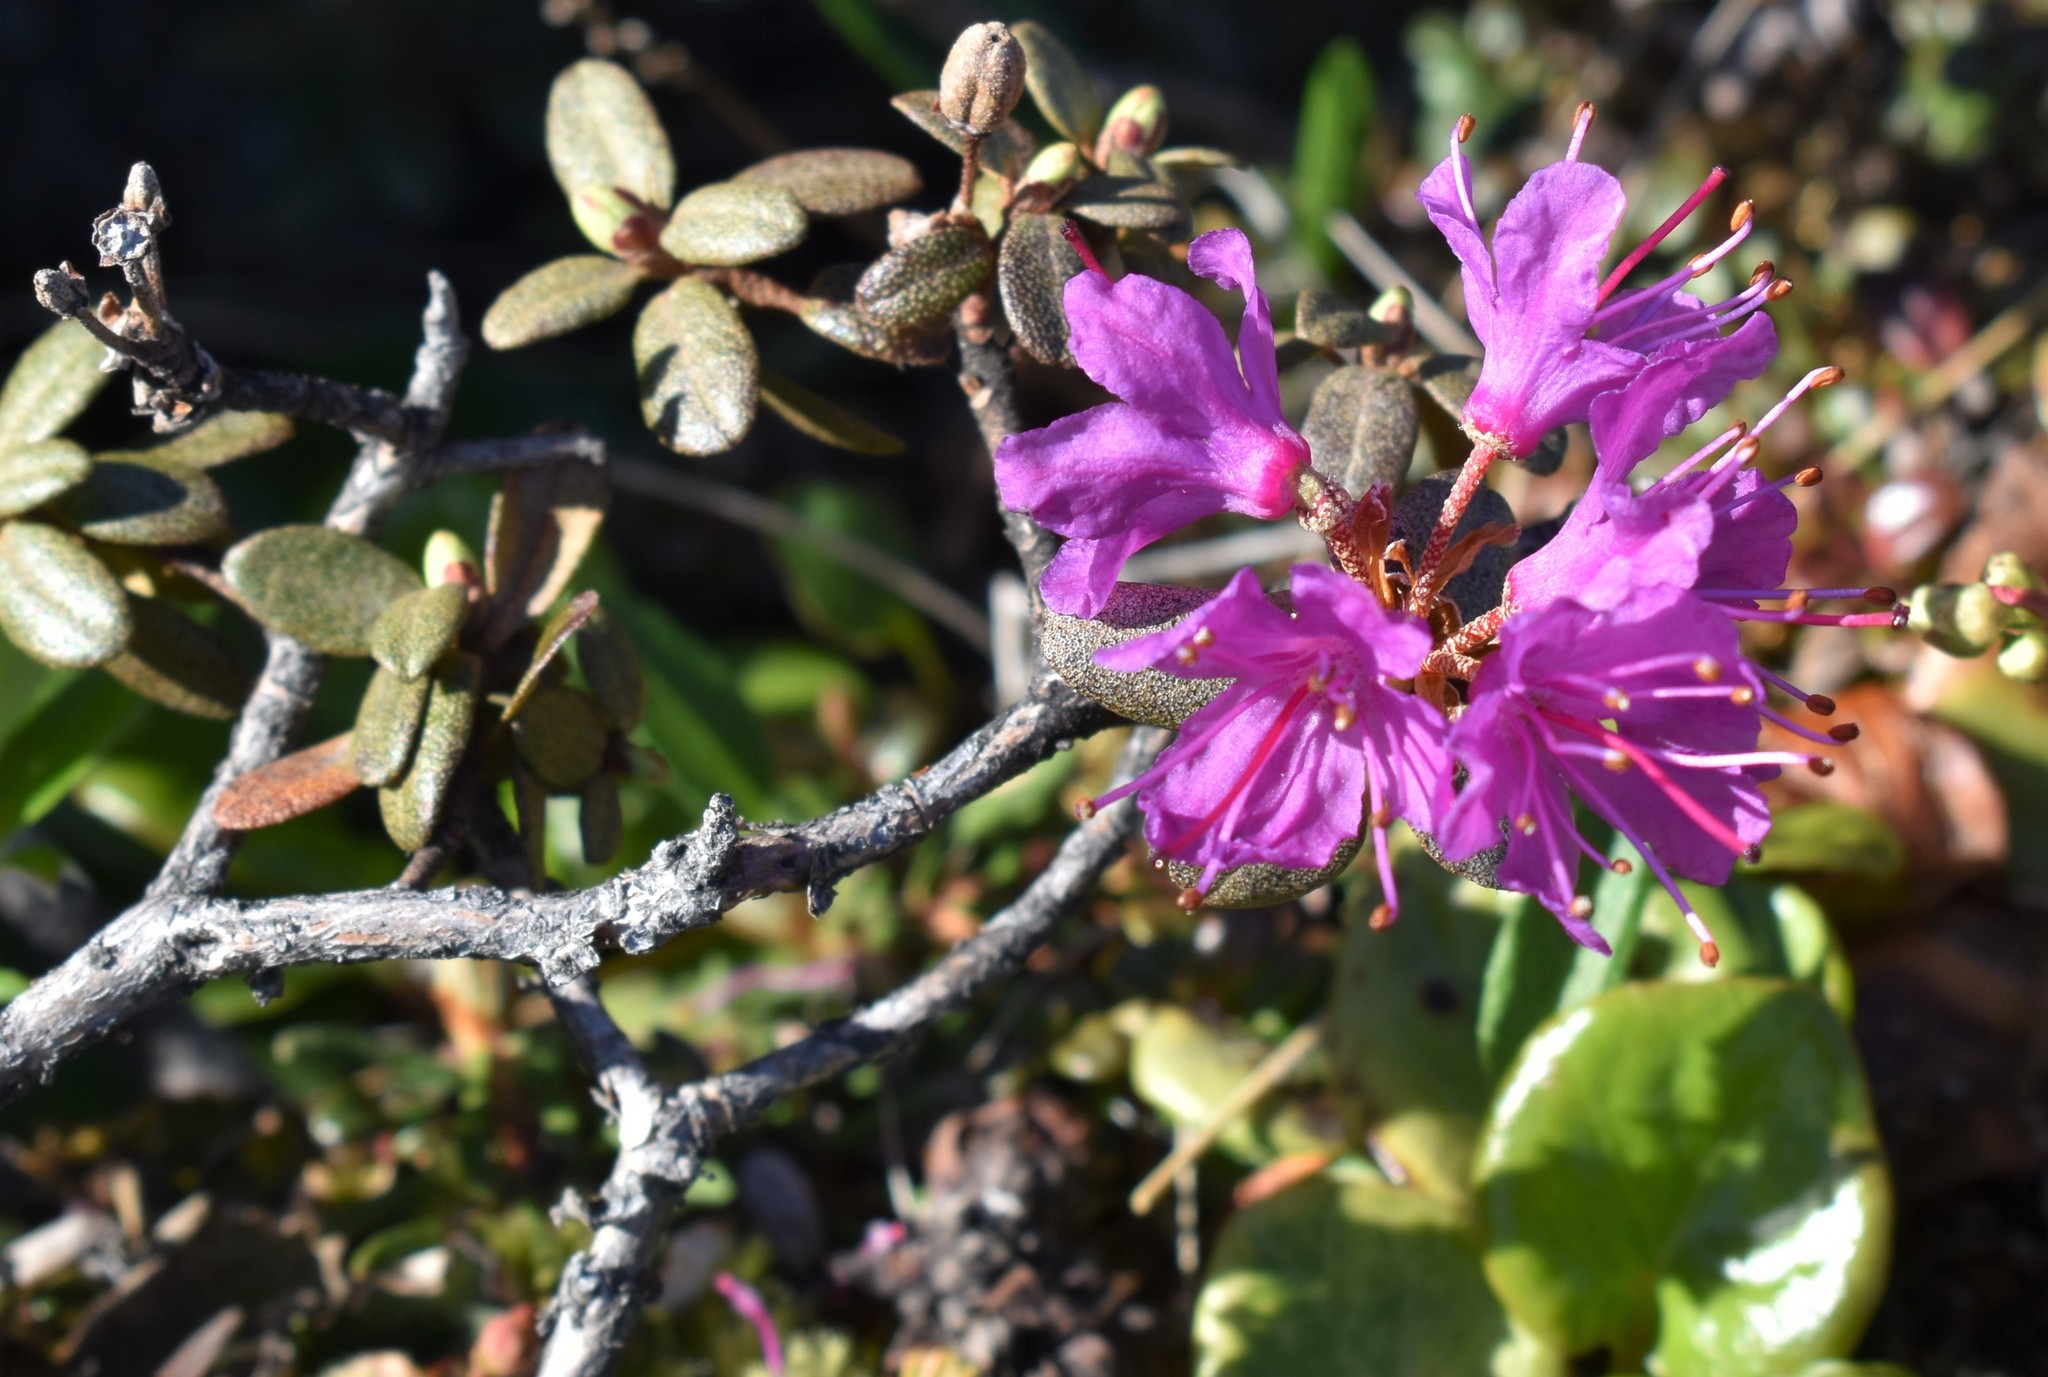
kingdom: Plantae
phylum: Tracheophyta
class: Magnoliopsida
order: Ericales
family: Ericaceae
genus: Rhododendron
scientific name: Rhododendron lapponicum
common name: Lapland rhododendron
